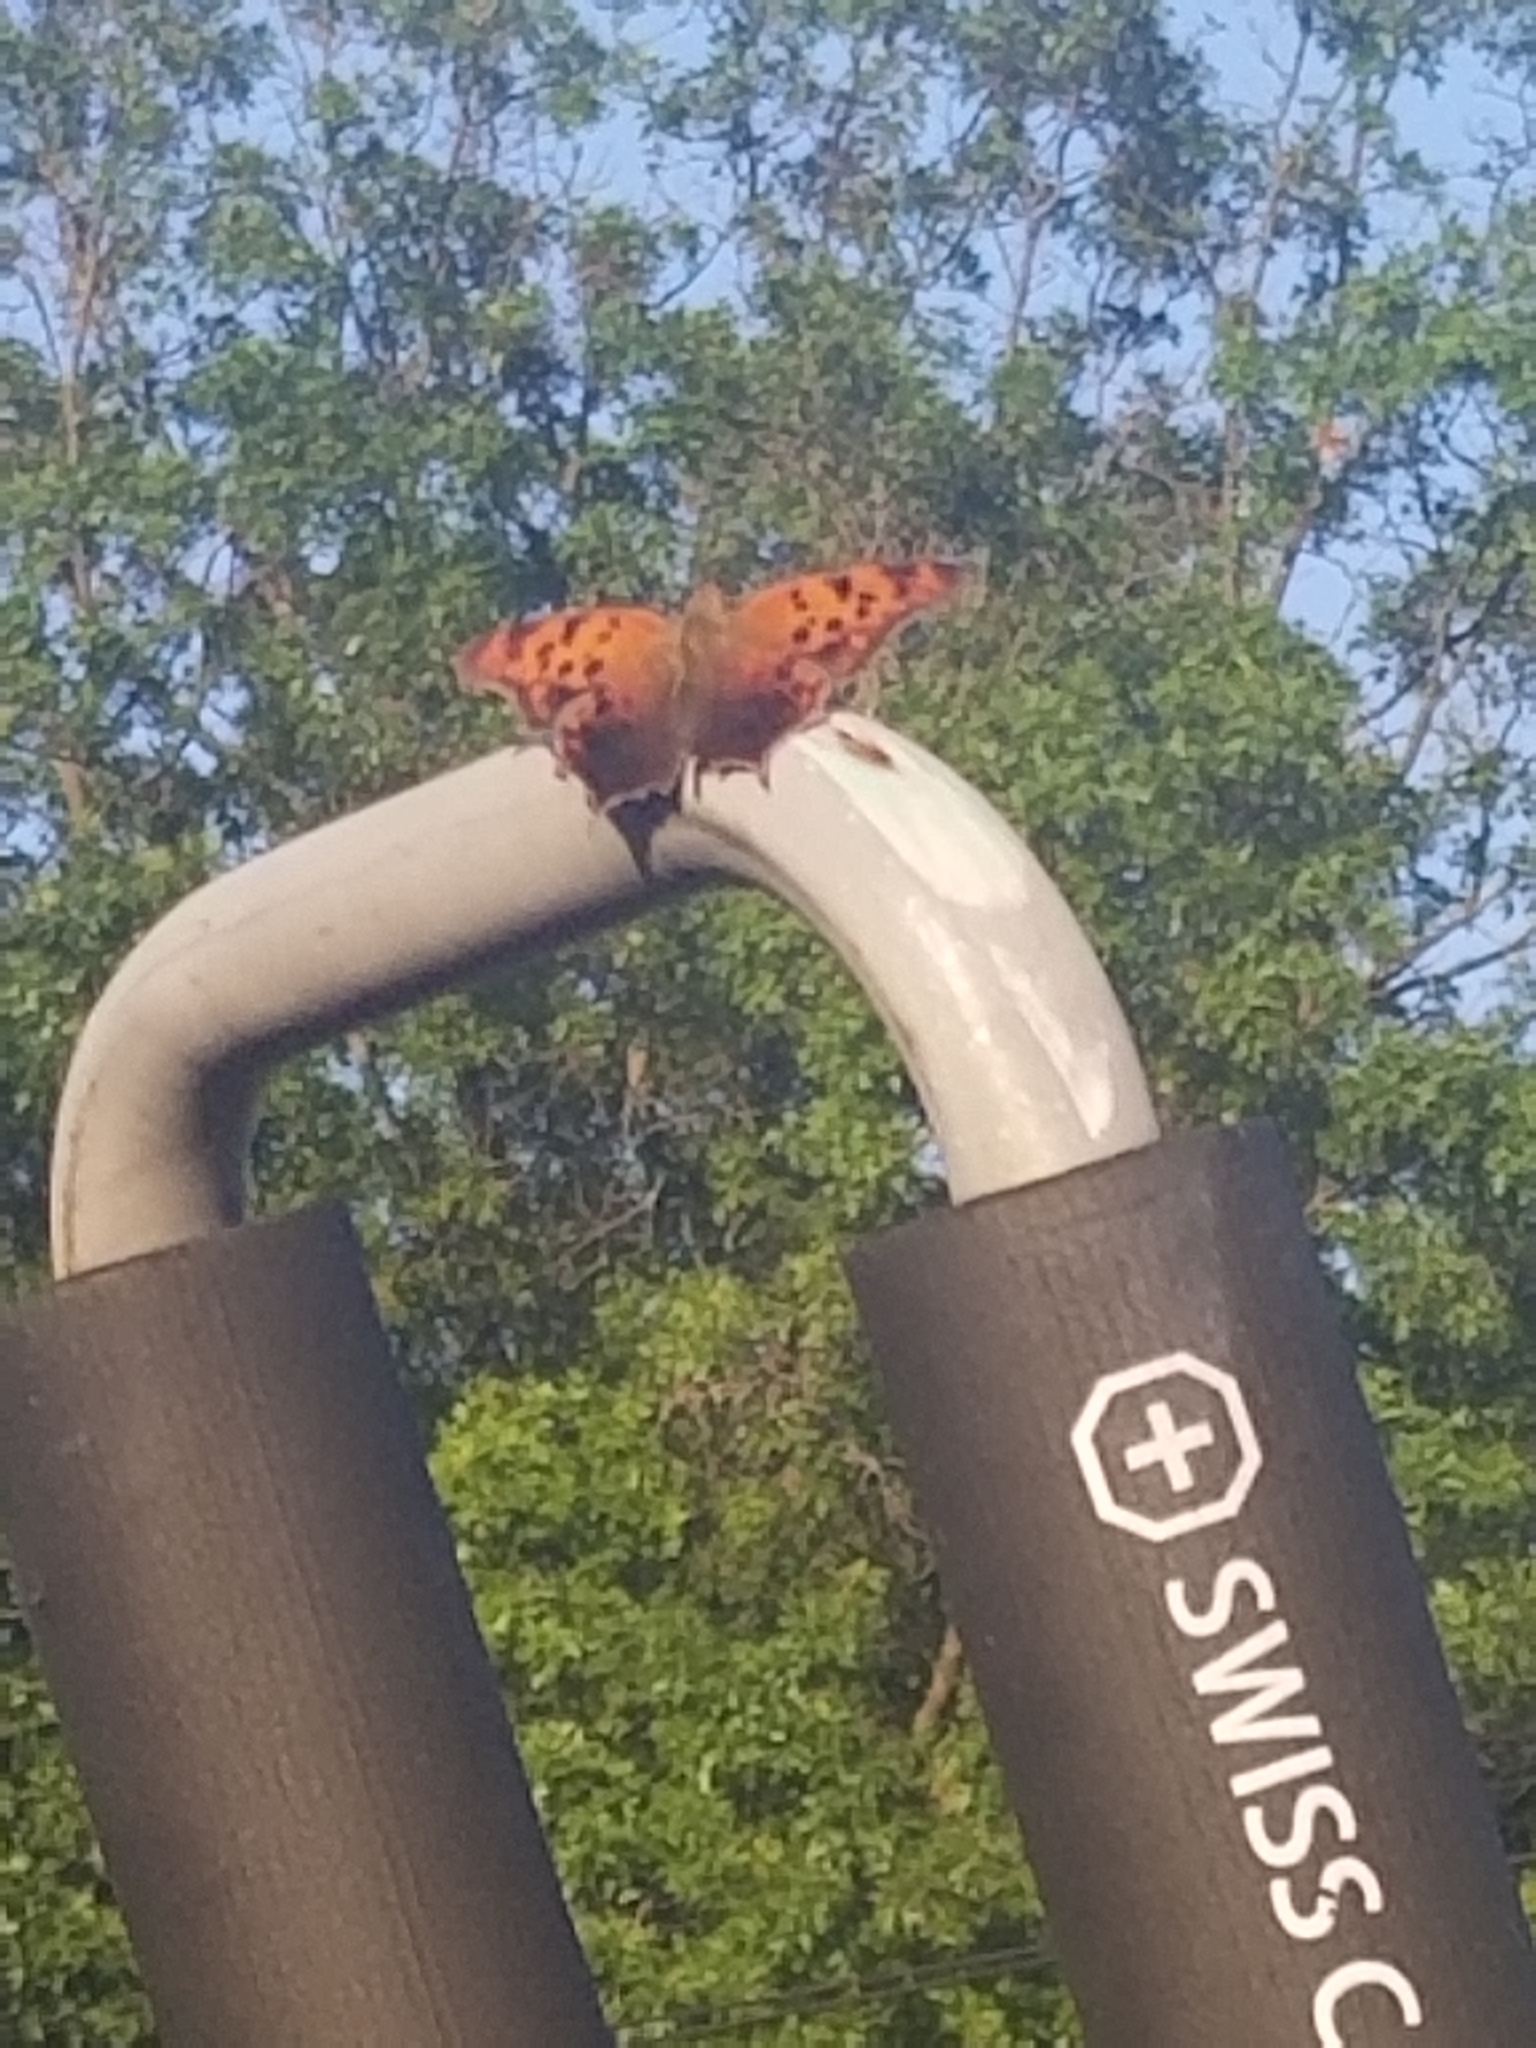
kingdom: Animalia
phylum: Arthropoda
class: Insecta
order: Lepidoptera
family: Nymphalidae
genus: Polygonia
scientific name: Polygonia interrogationis
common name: Question mark
